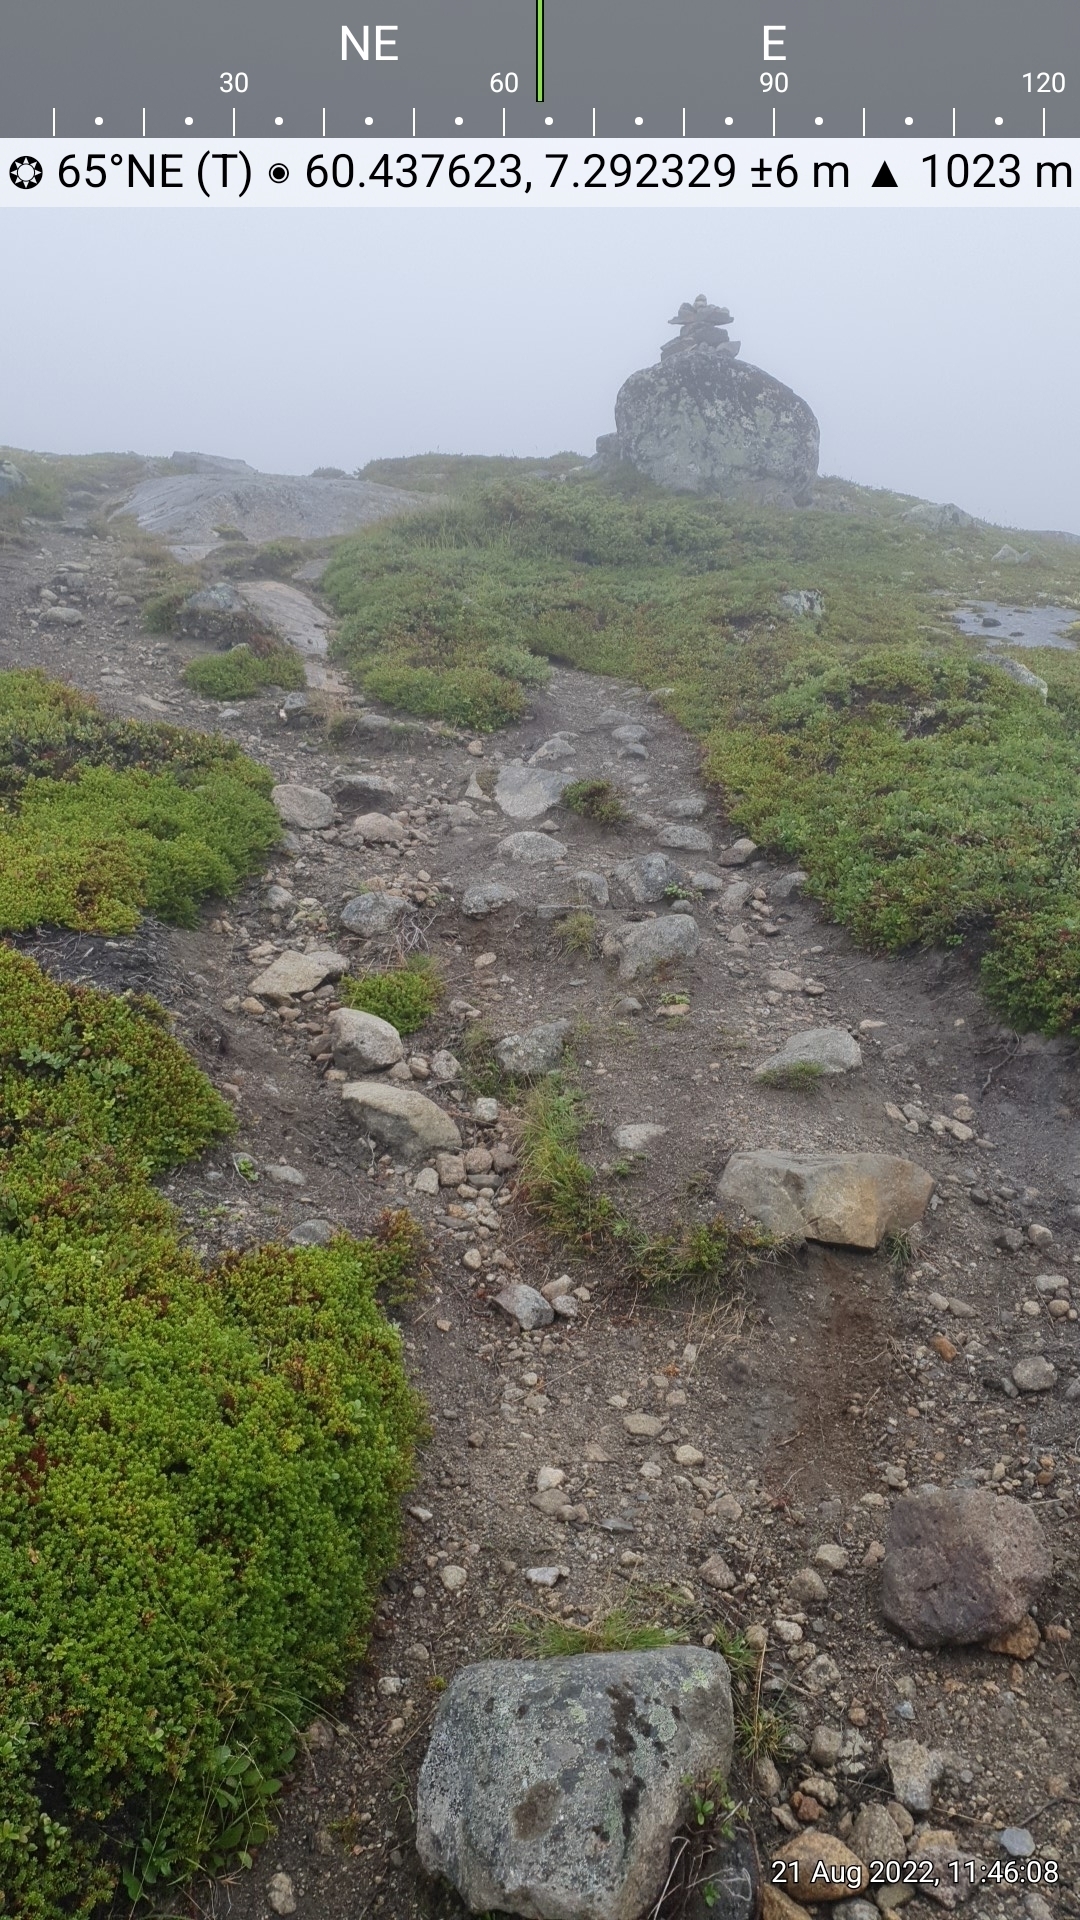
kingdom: Plantae
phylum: Tracheophyta
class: Liliopsida
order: Poales
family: Juncaceae
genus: Luzula
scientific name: Luzula spicata
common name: Spiked wood-rush
